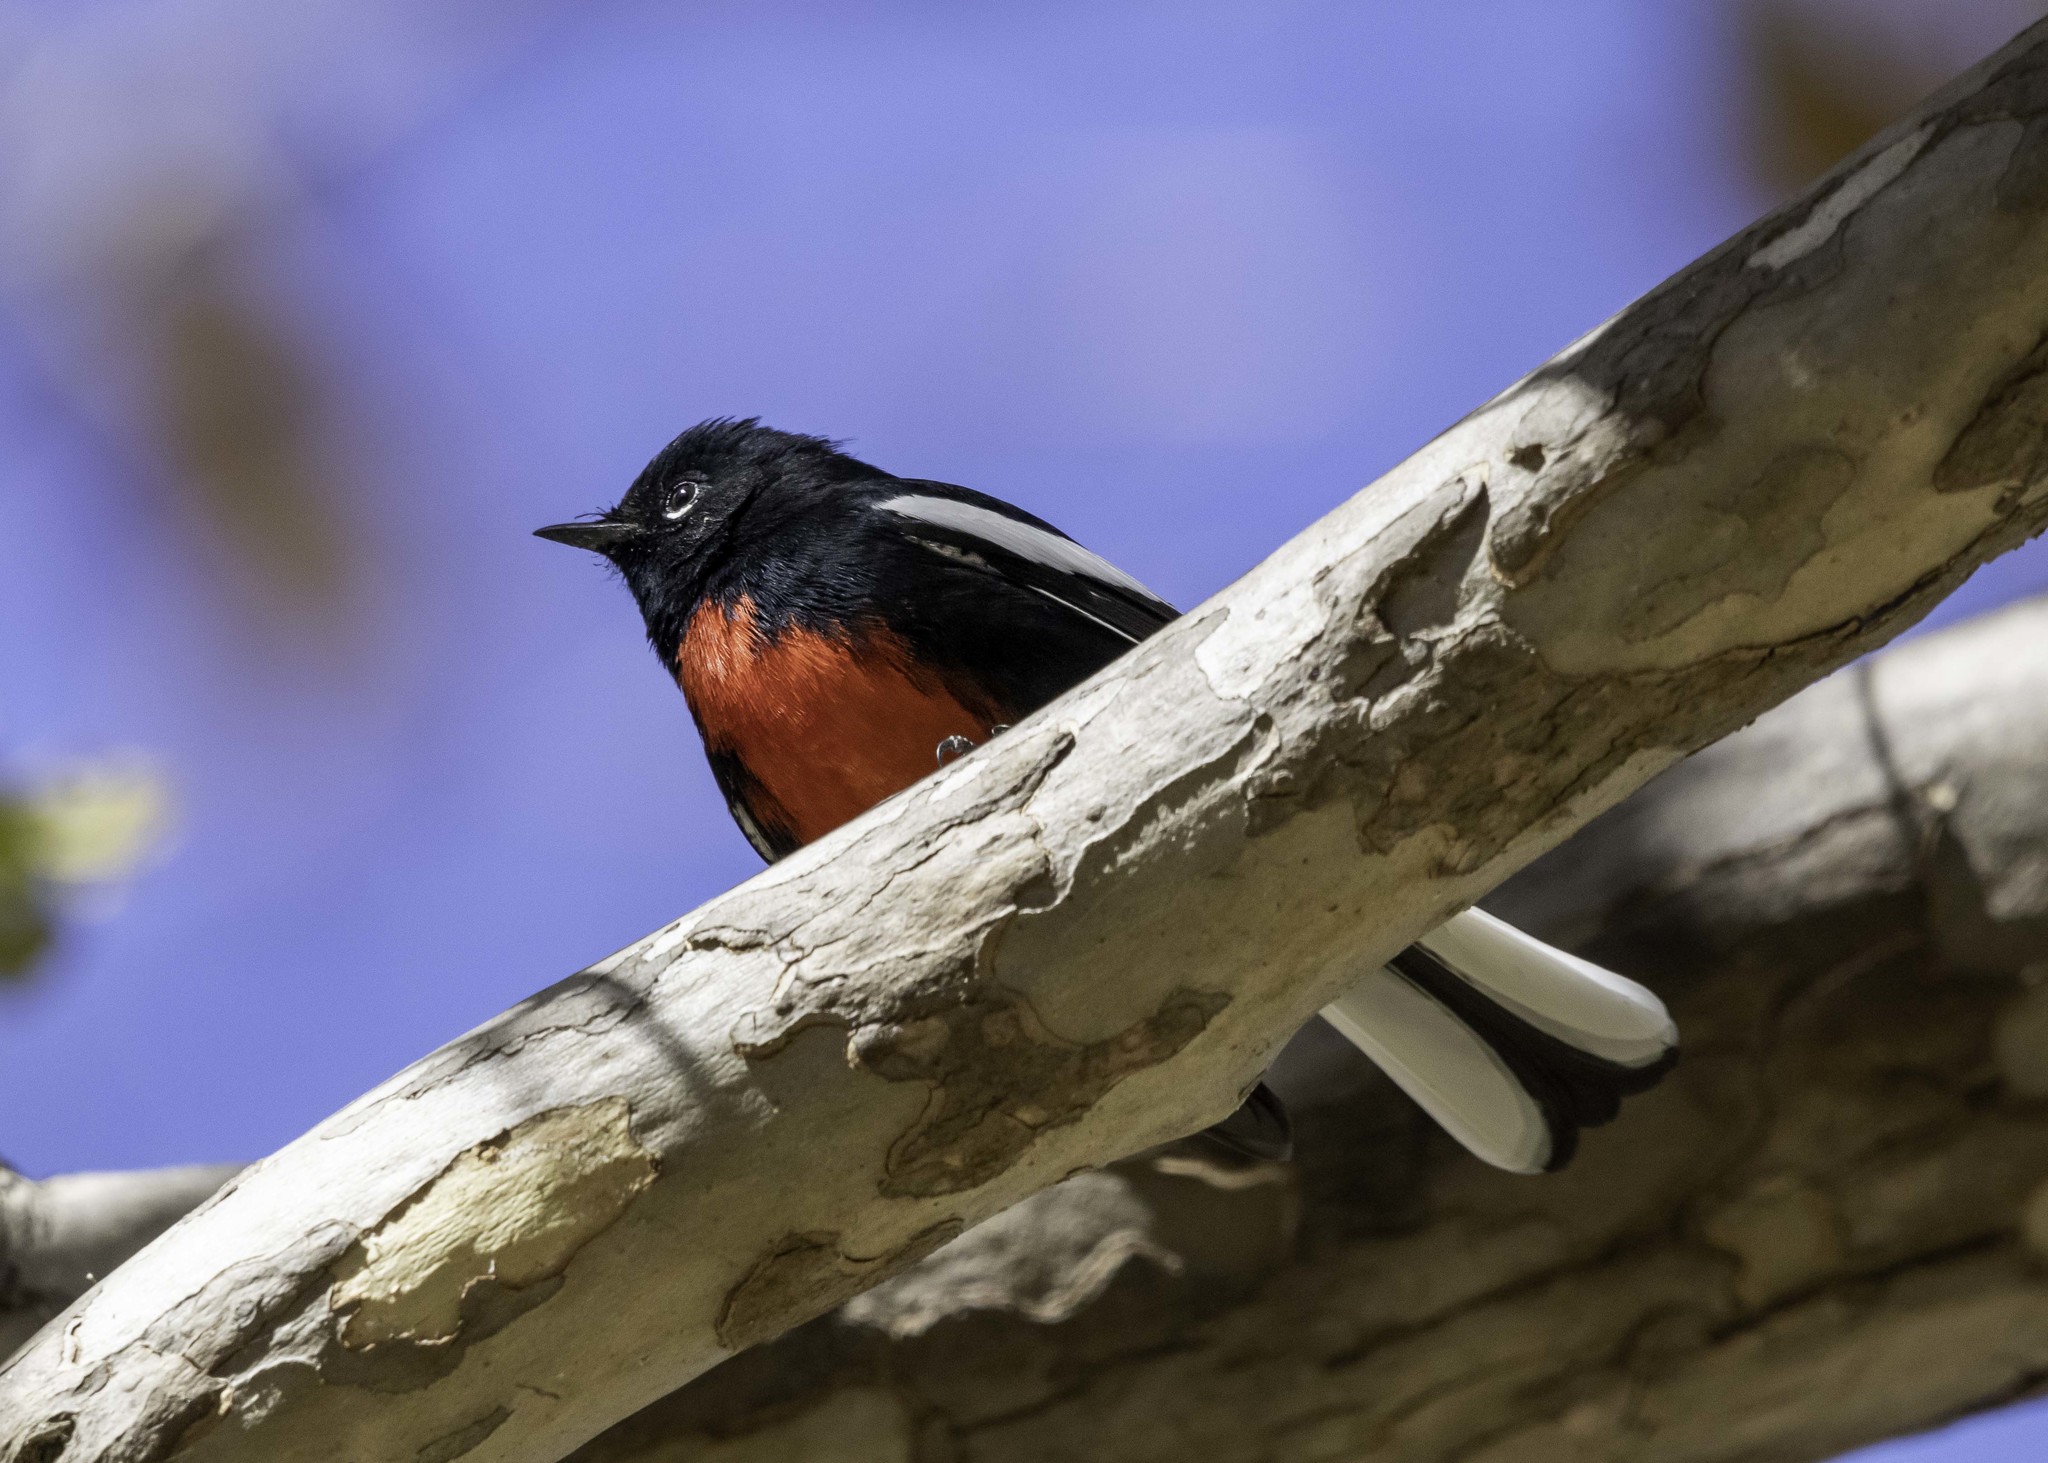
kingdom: Animalia
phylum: Chordata
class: Aves
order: Passeriformes
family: Parulidae
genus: Myioborus
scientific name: Myioborus pictus
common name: Painted whitestart
